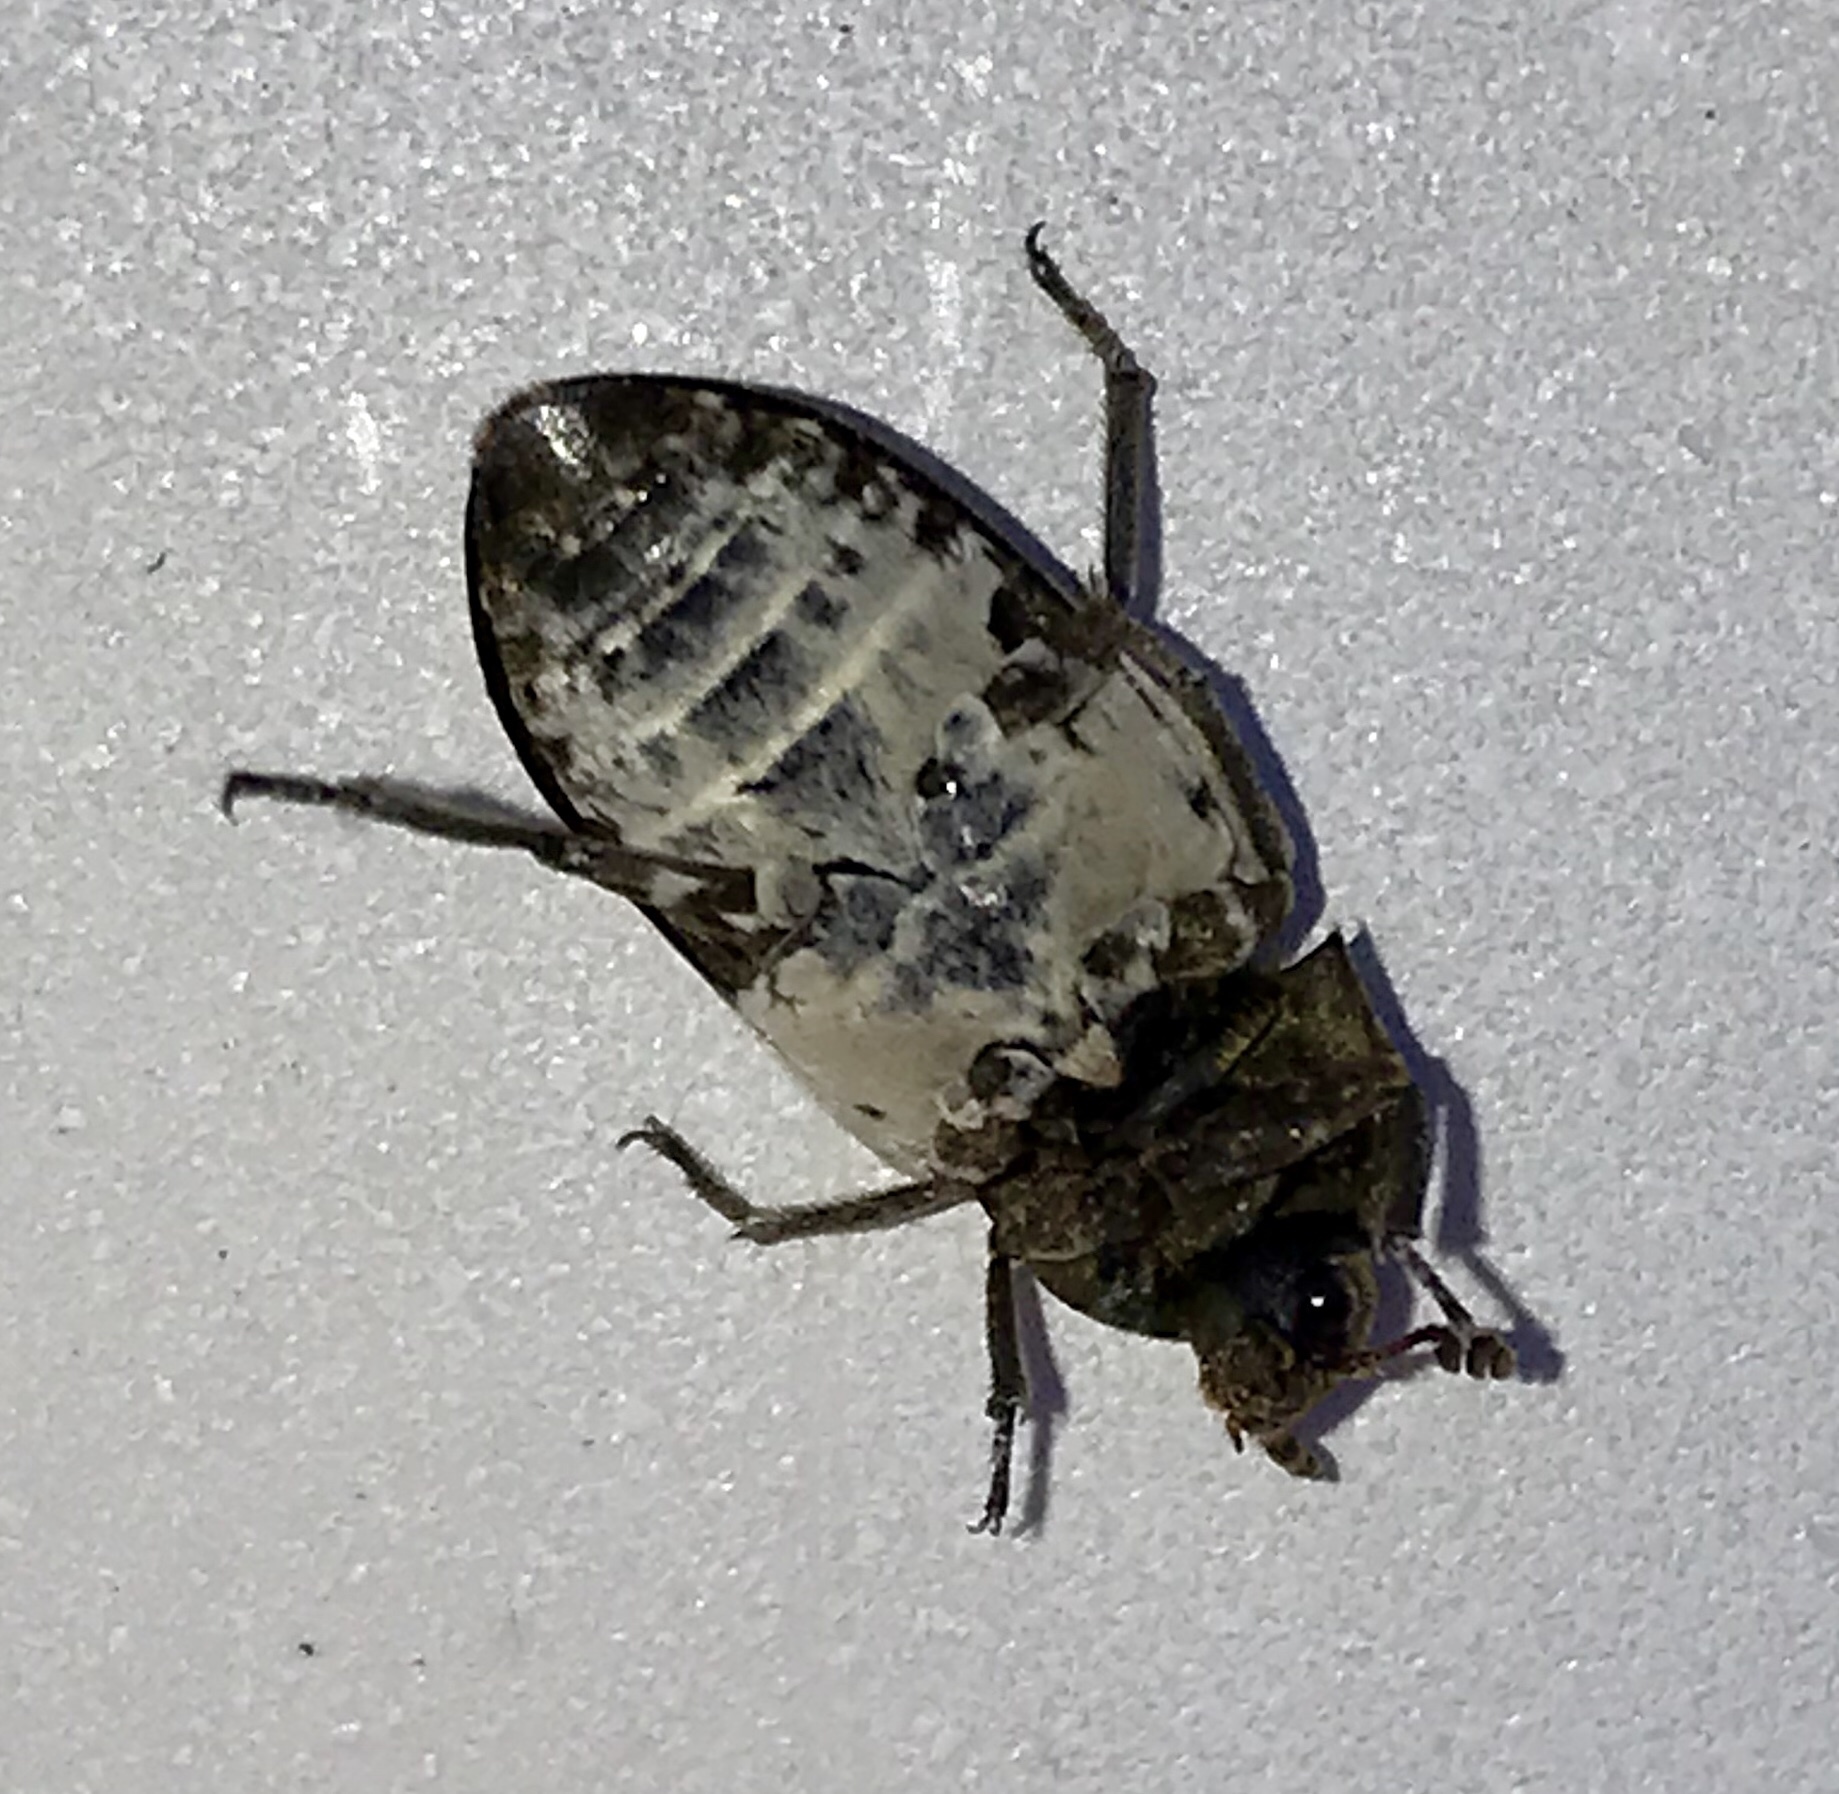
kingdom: Animalia
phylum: Arthropoda
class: Insecta
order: Coleoptera
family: Dermestidae
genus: Dermestes
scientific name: Dermestes marmoratus
